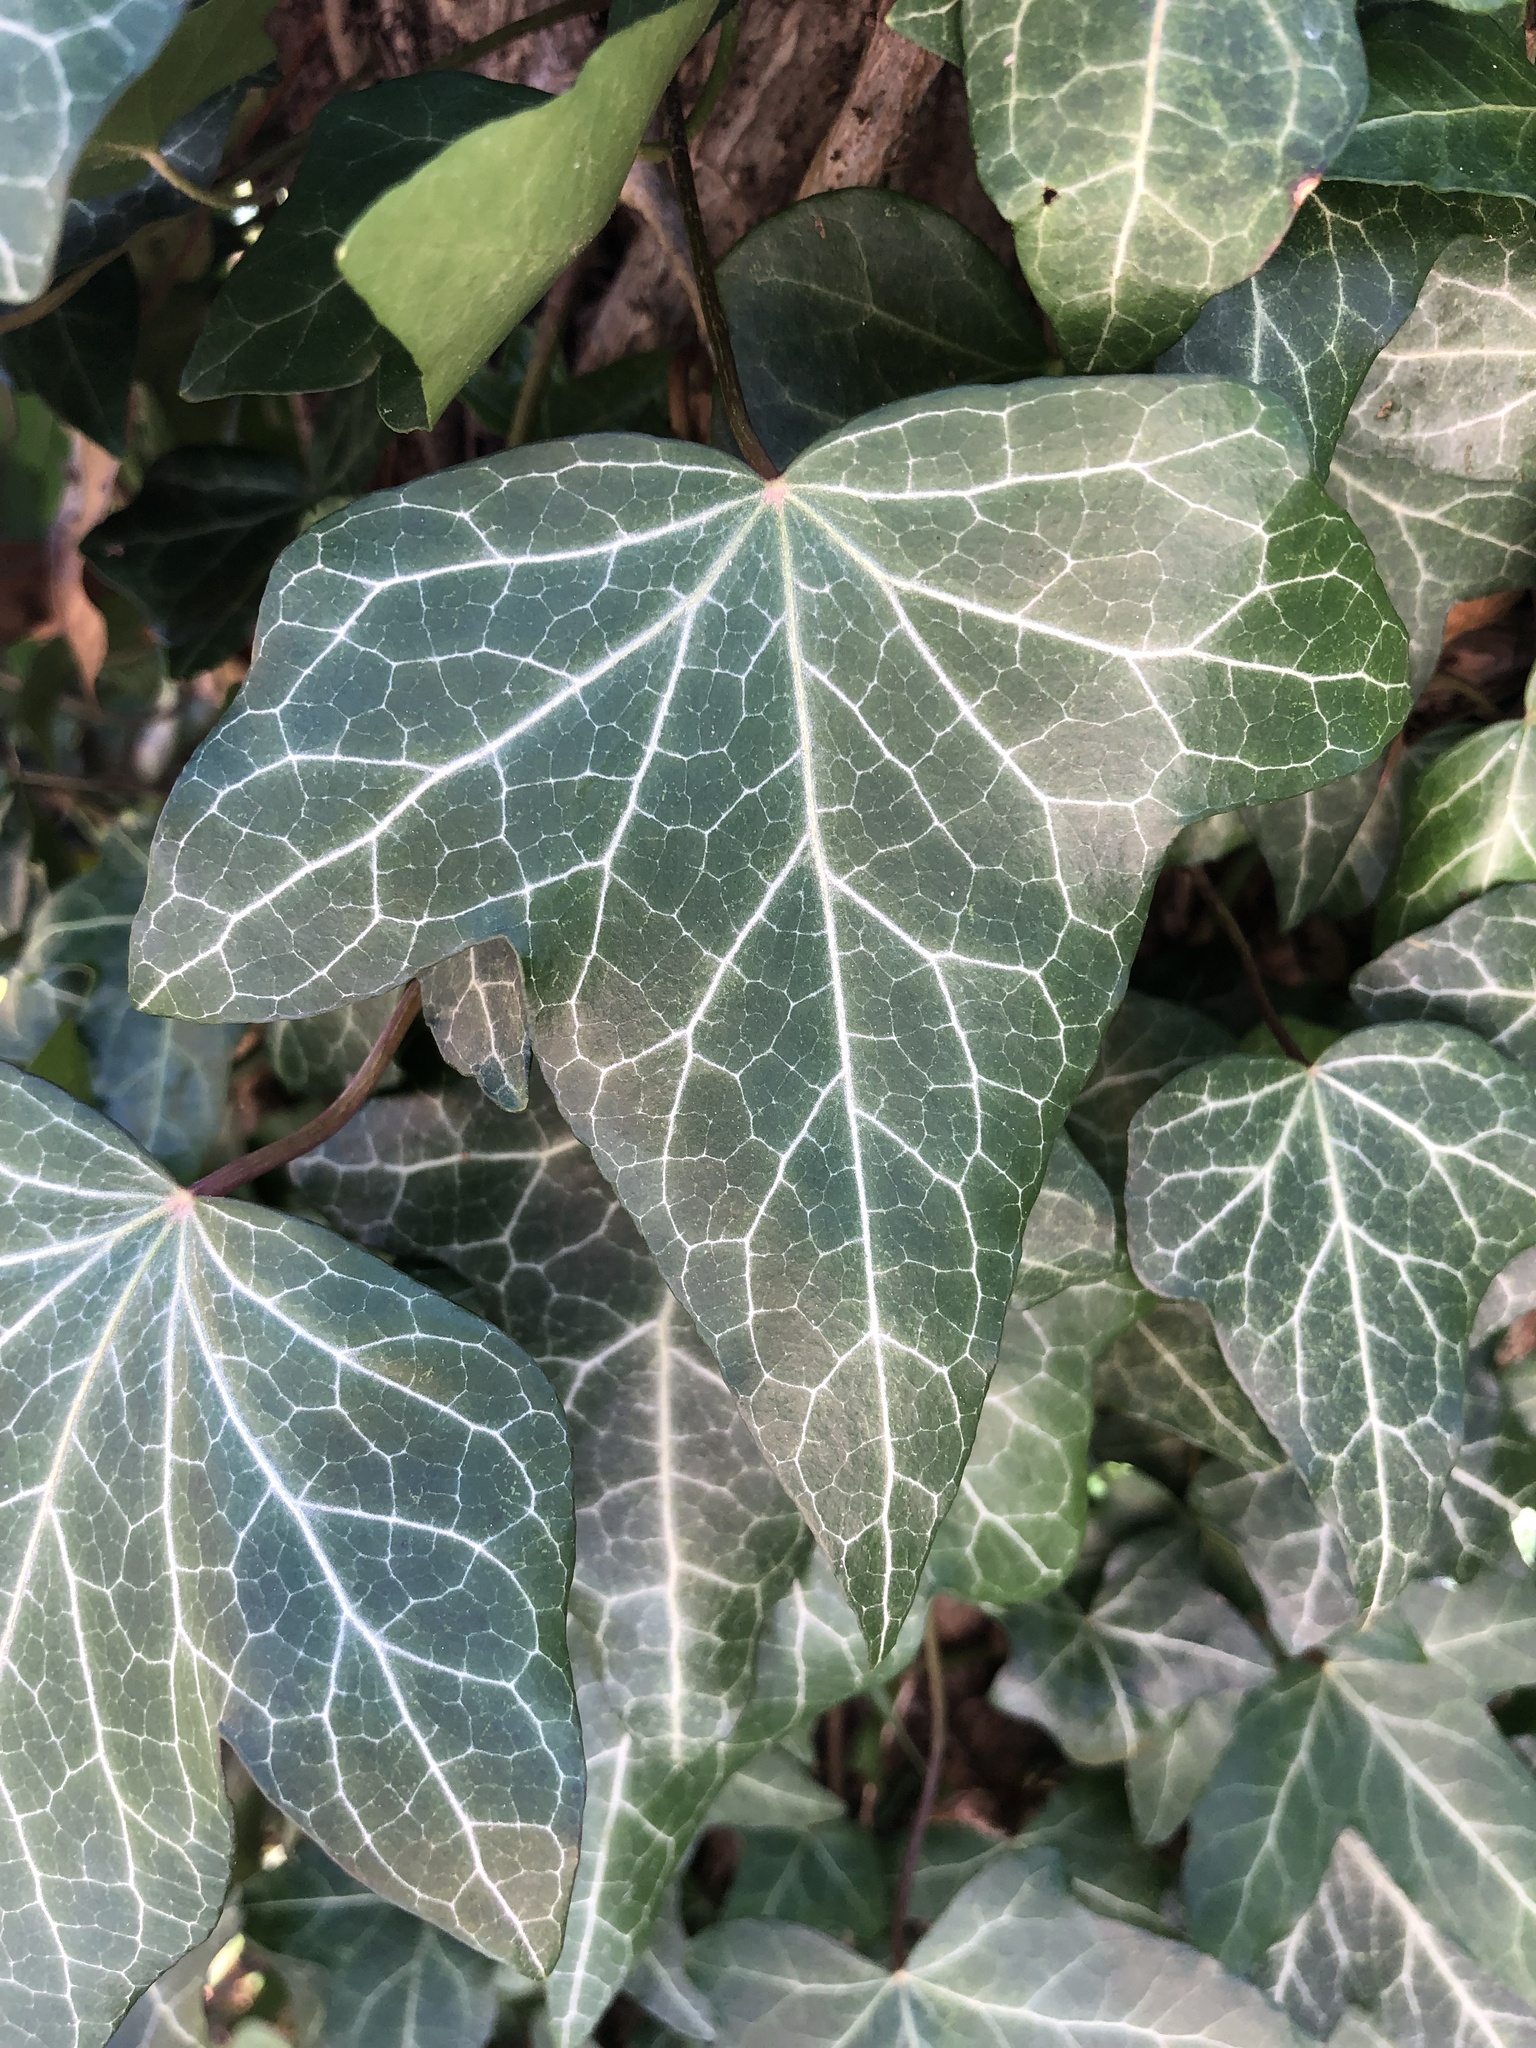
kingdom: Plantae
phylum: Tracheophyta
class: Magnoliopsida
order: Apiales
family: Araliaceae
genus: Hedera
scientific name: Hedera helix
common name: Ivy
